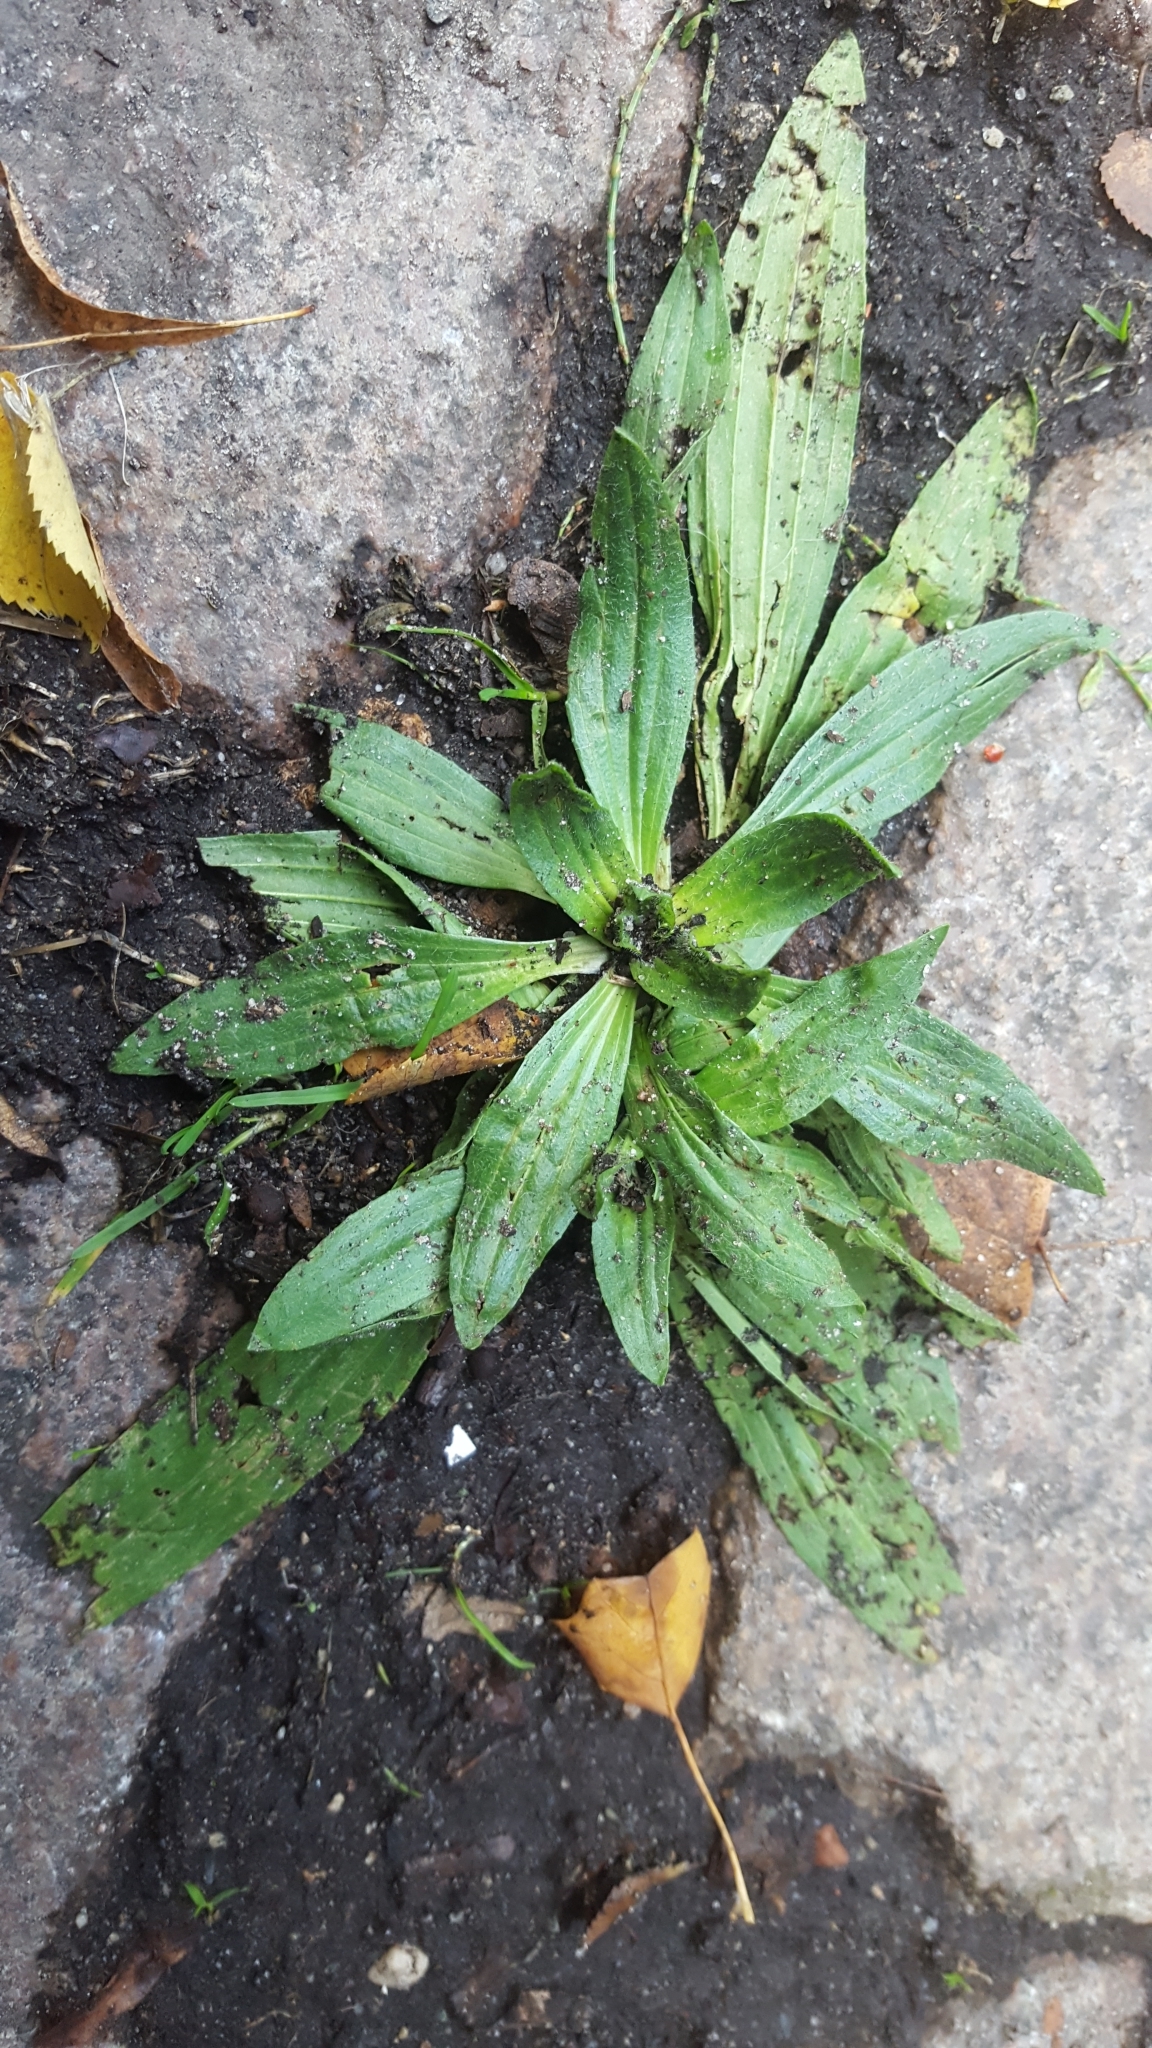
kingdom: Plantae
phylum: Tracheophyta
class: Magnoliopsida
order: Lamiales
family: Plantaginaceae
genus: Plantago
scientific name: Plantago lanceolata
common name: Ribwort plantain
